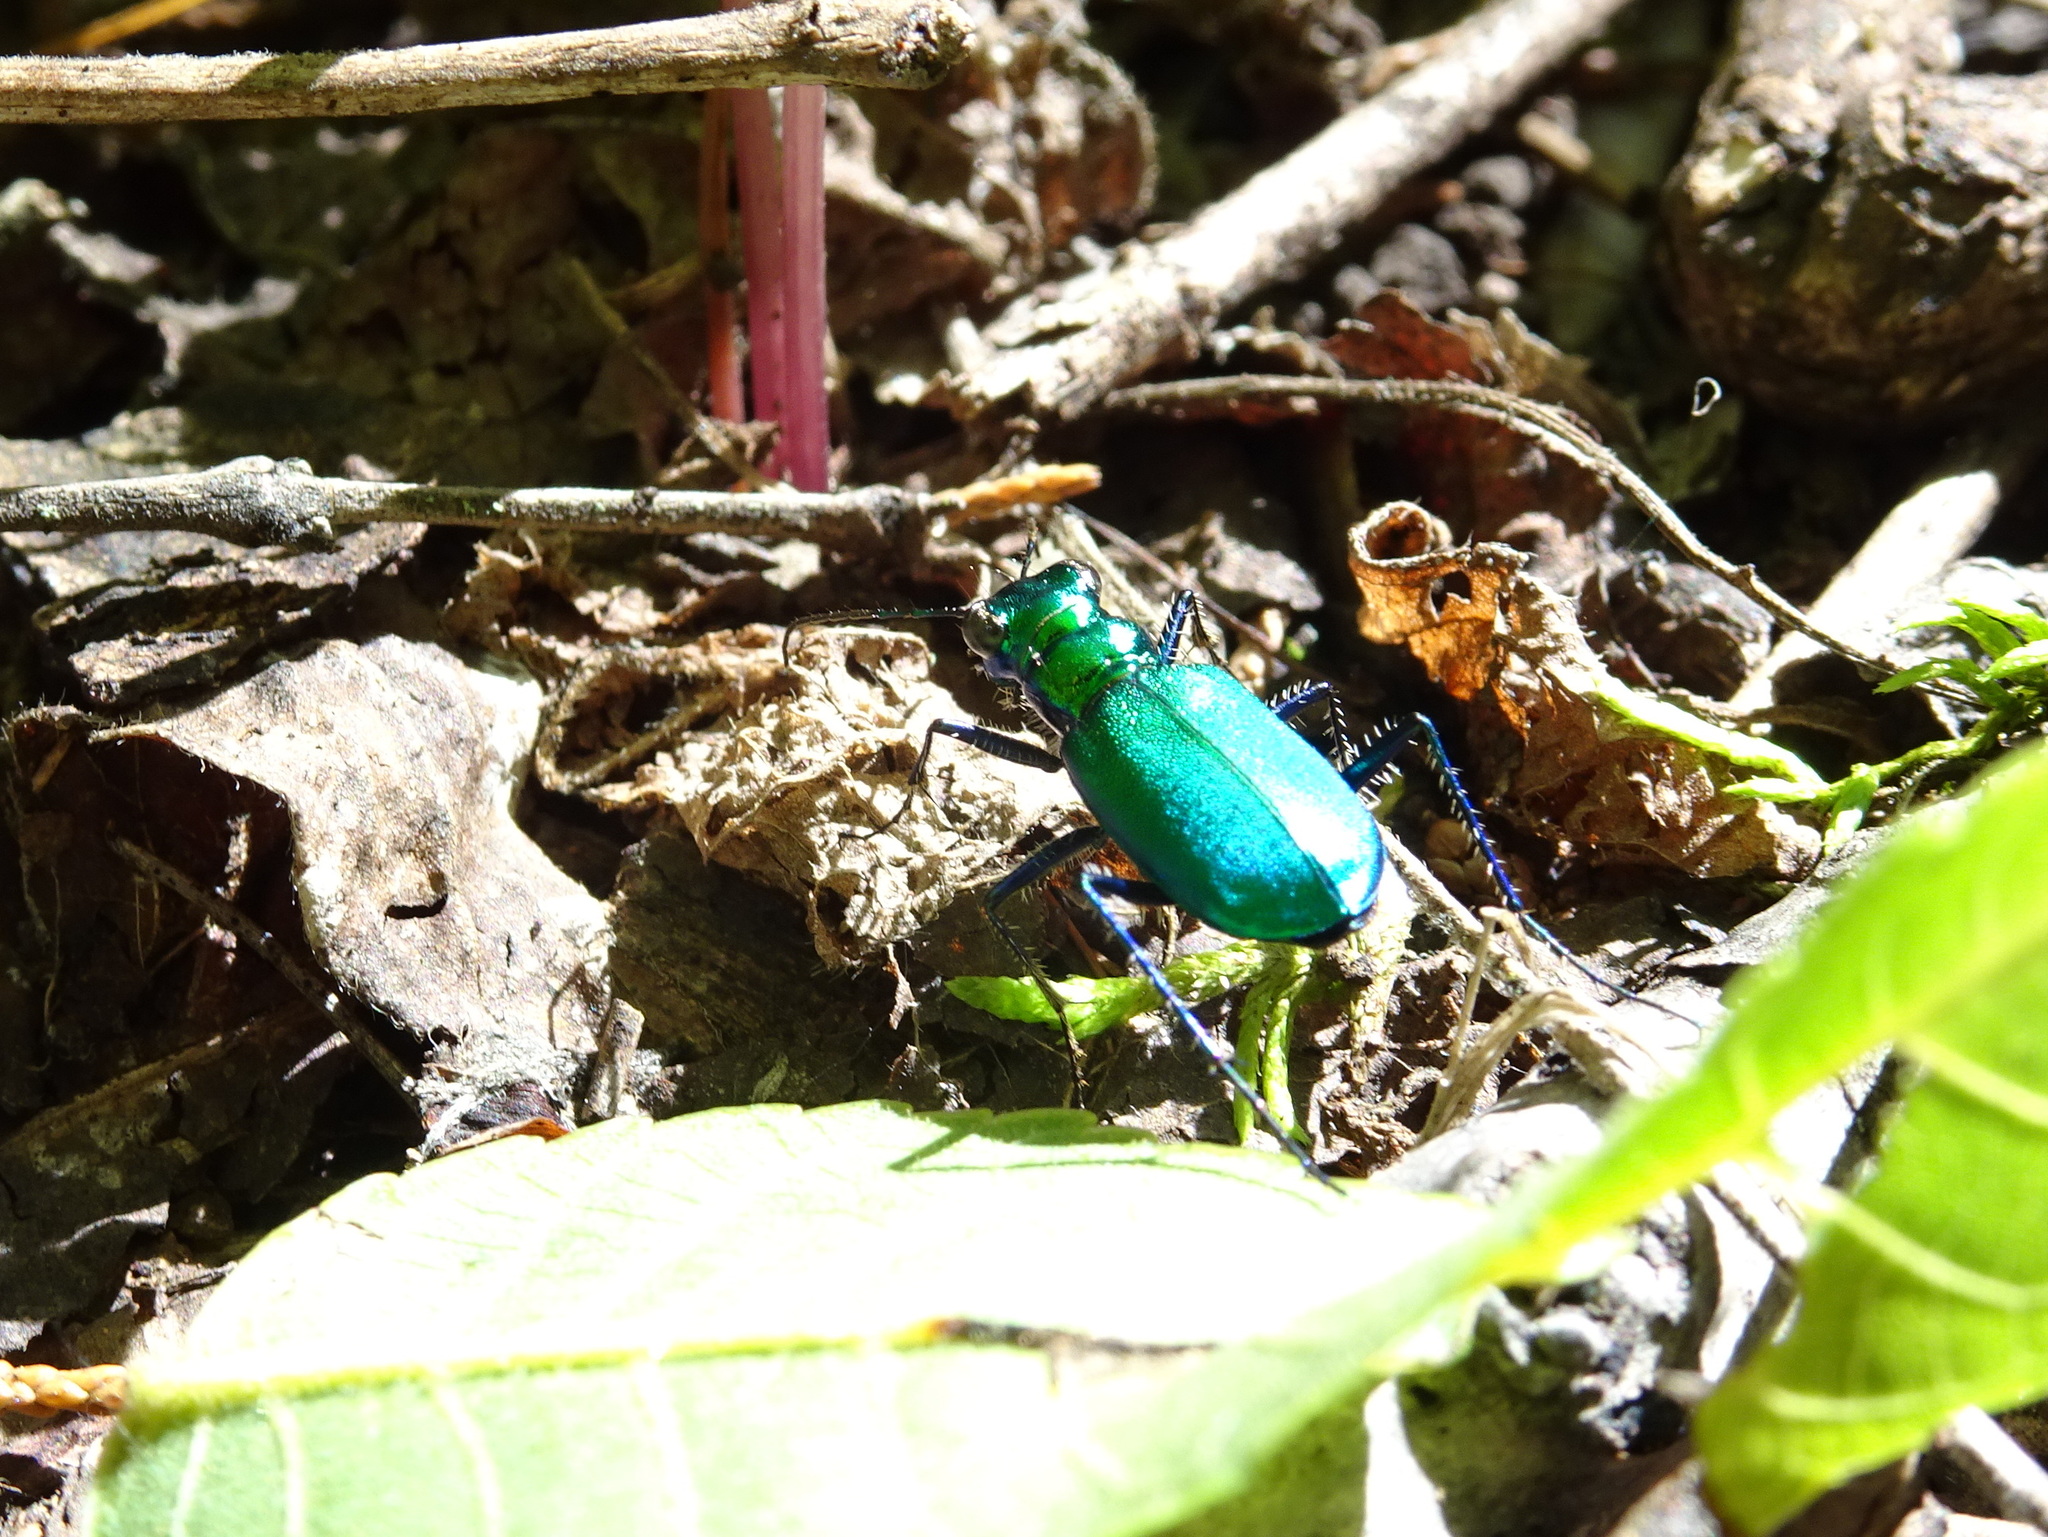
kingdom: Animalia
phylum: Arthropoda
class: Insecta
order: Coleoptera
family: Carabidae
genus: Cicindela
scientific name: Cicindela sexguttata
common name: Six-spotted tiger beetle
